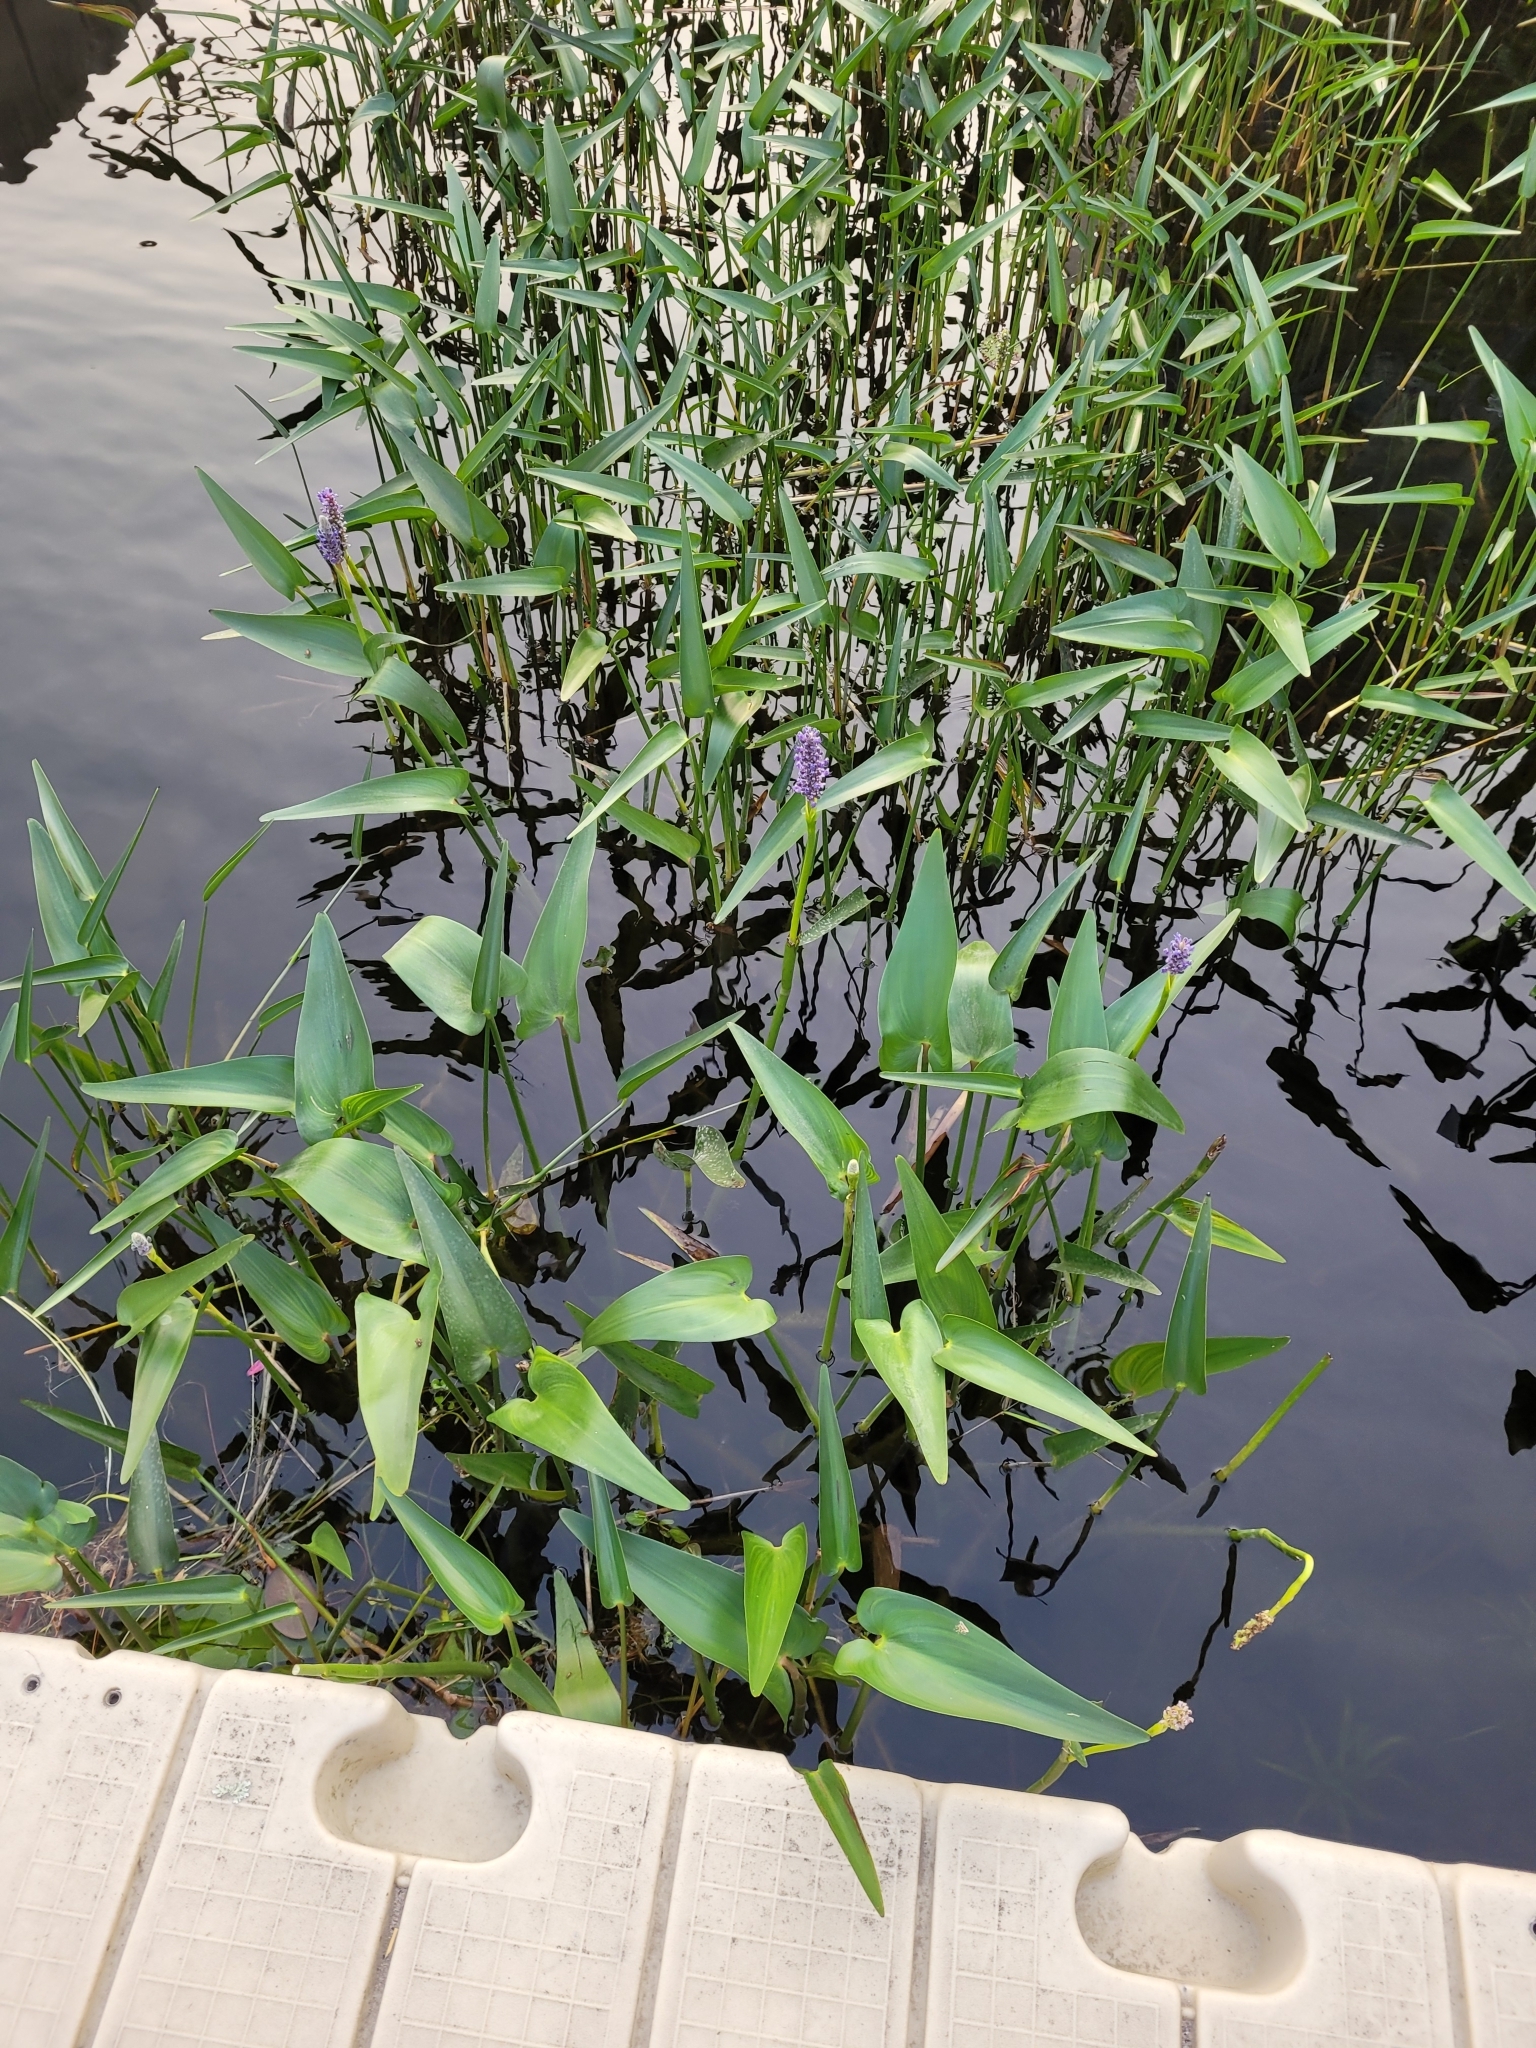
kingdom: Plantae
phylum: Tracheophyta
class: Liliopsida
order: Commelinales
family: Pontederiaceae
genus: Pontederia
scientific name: Pontederia cordata
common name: Pickerelweed
